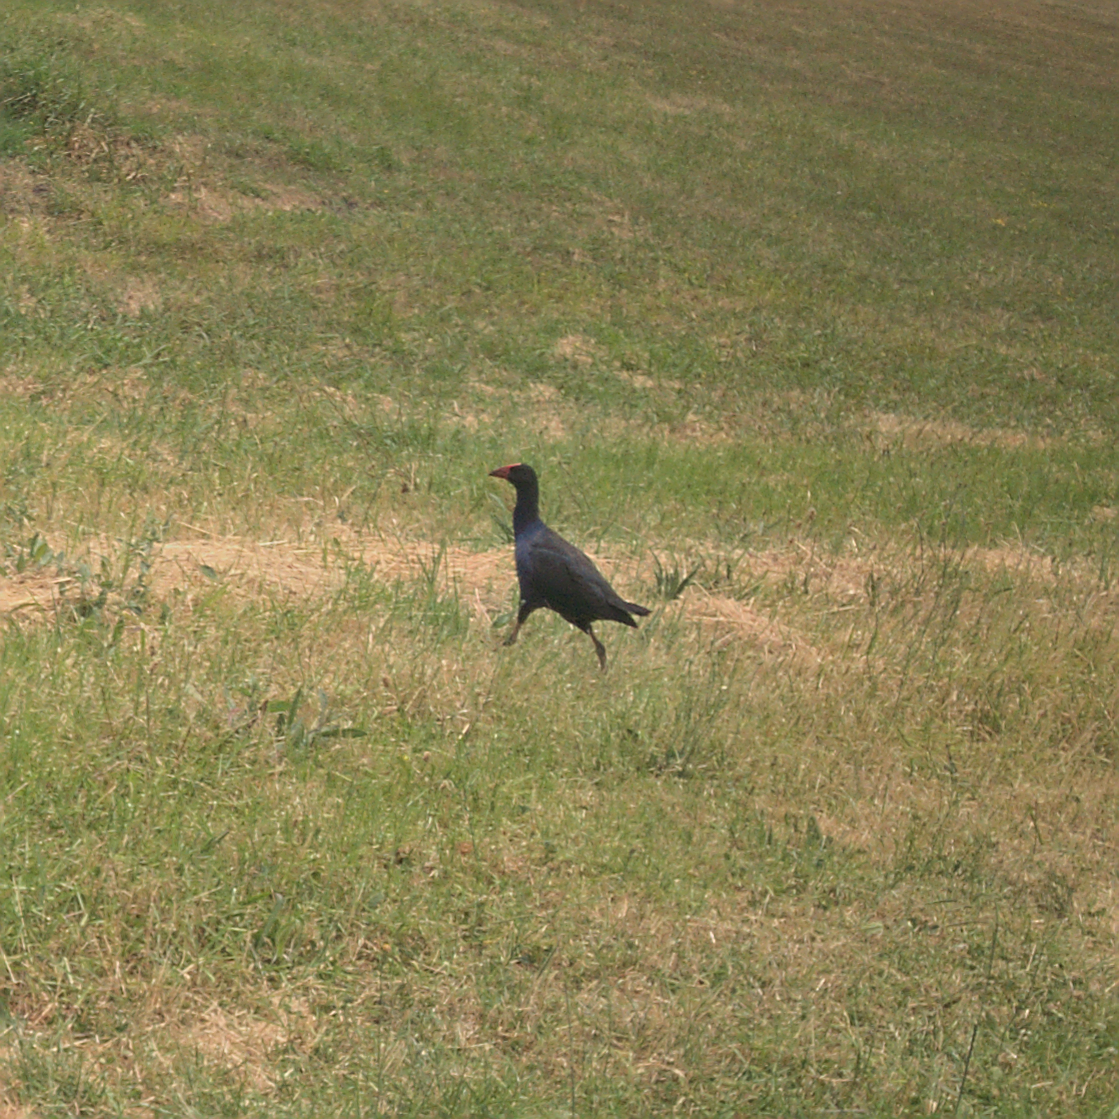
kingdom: Animalia
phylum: Chordata
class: Aves
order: Gruiformes
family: Rallidae
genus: Porphyrio
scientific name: Porphyrio melanotus
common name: Australasian swamphen
